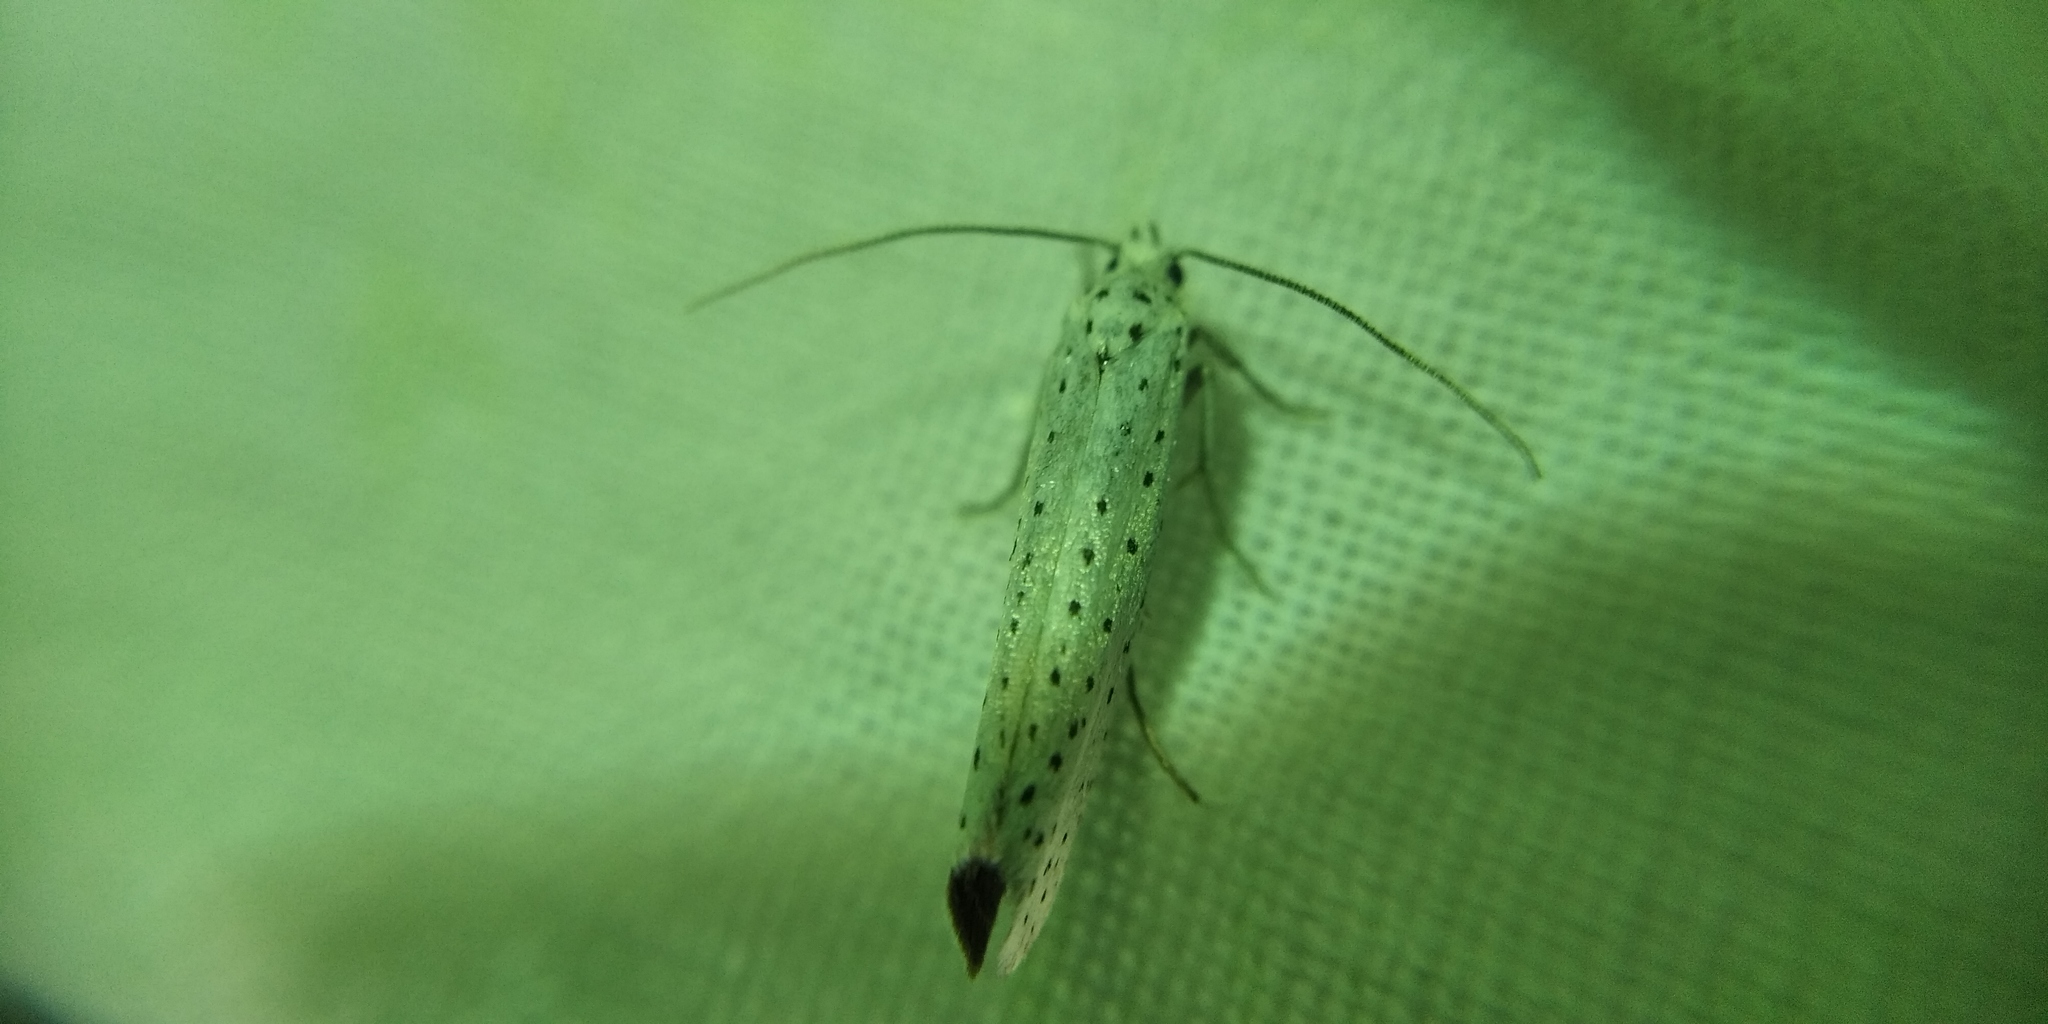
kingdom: Animalia
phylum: Arthropoda
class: Insecta
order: Lepidoptera
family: Yponomeutidae
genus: Yponomeuta
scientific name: Yponomeuta evonymella
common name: Bird-cherry ermine
